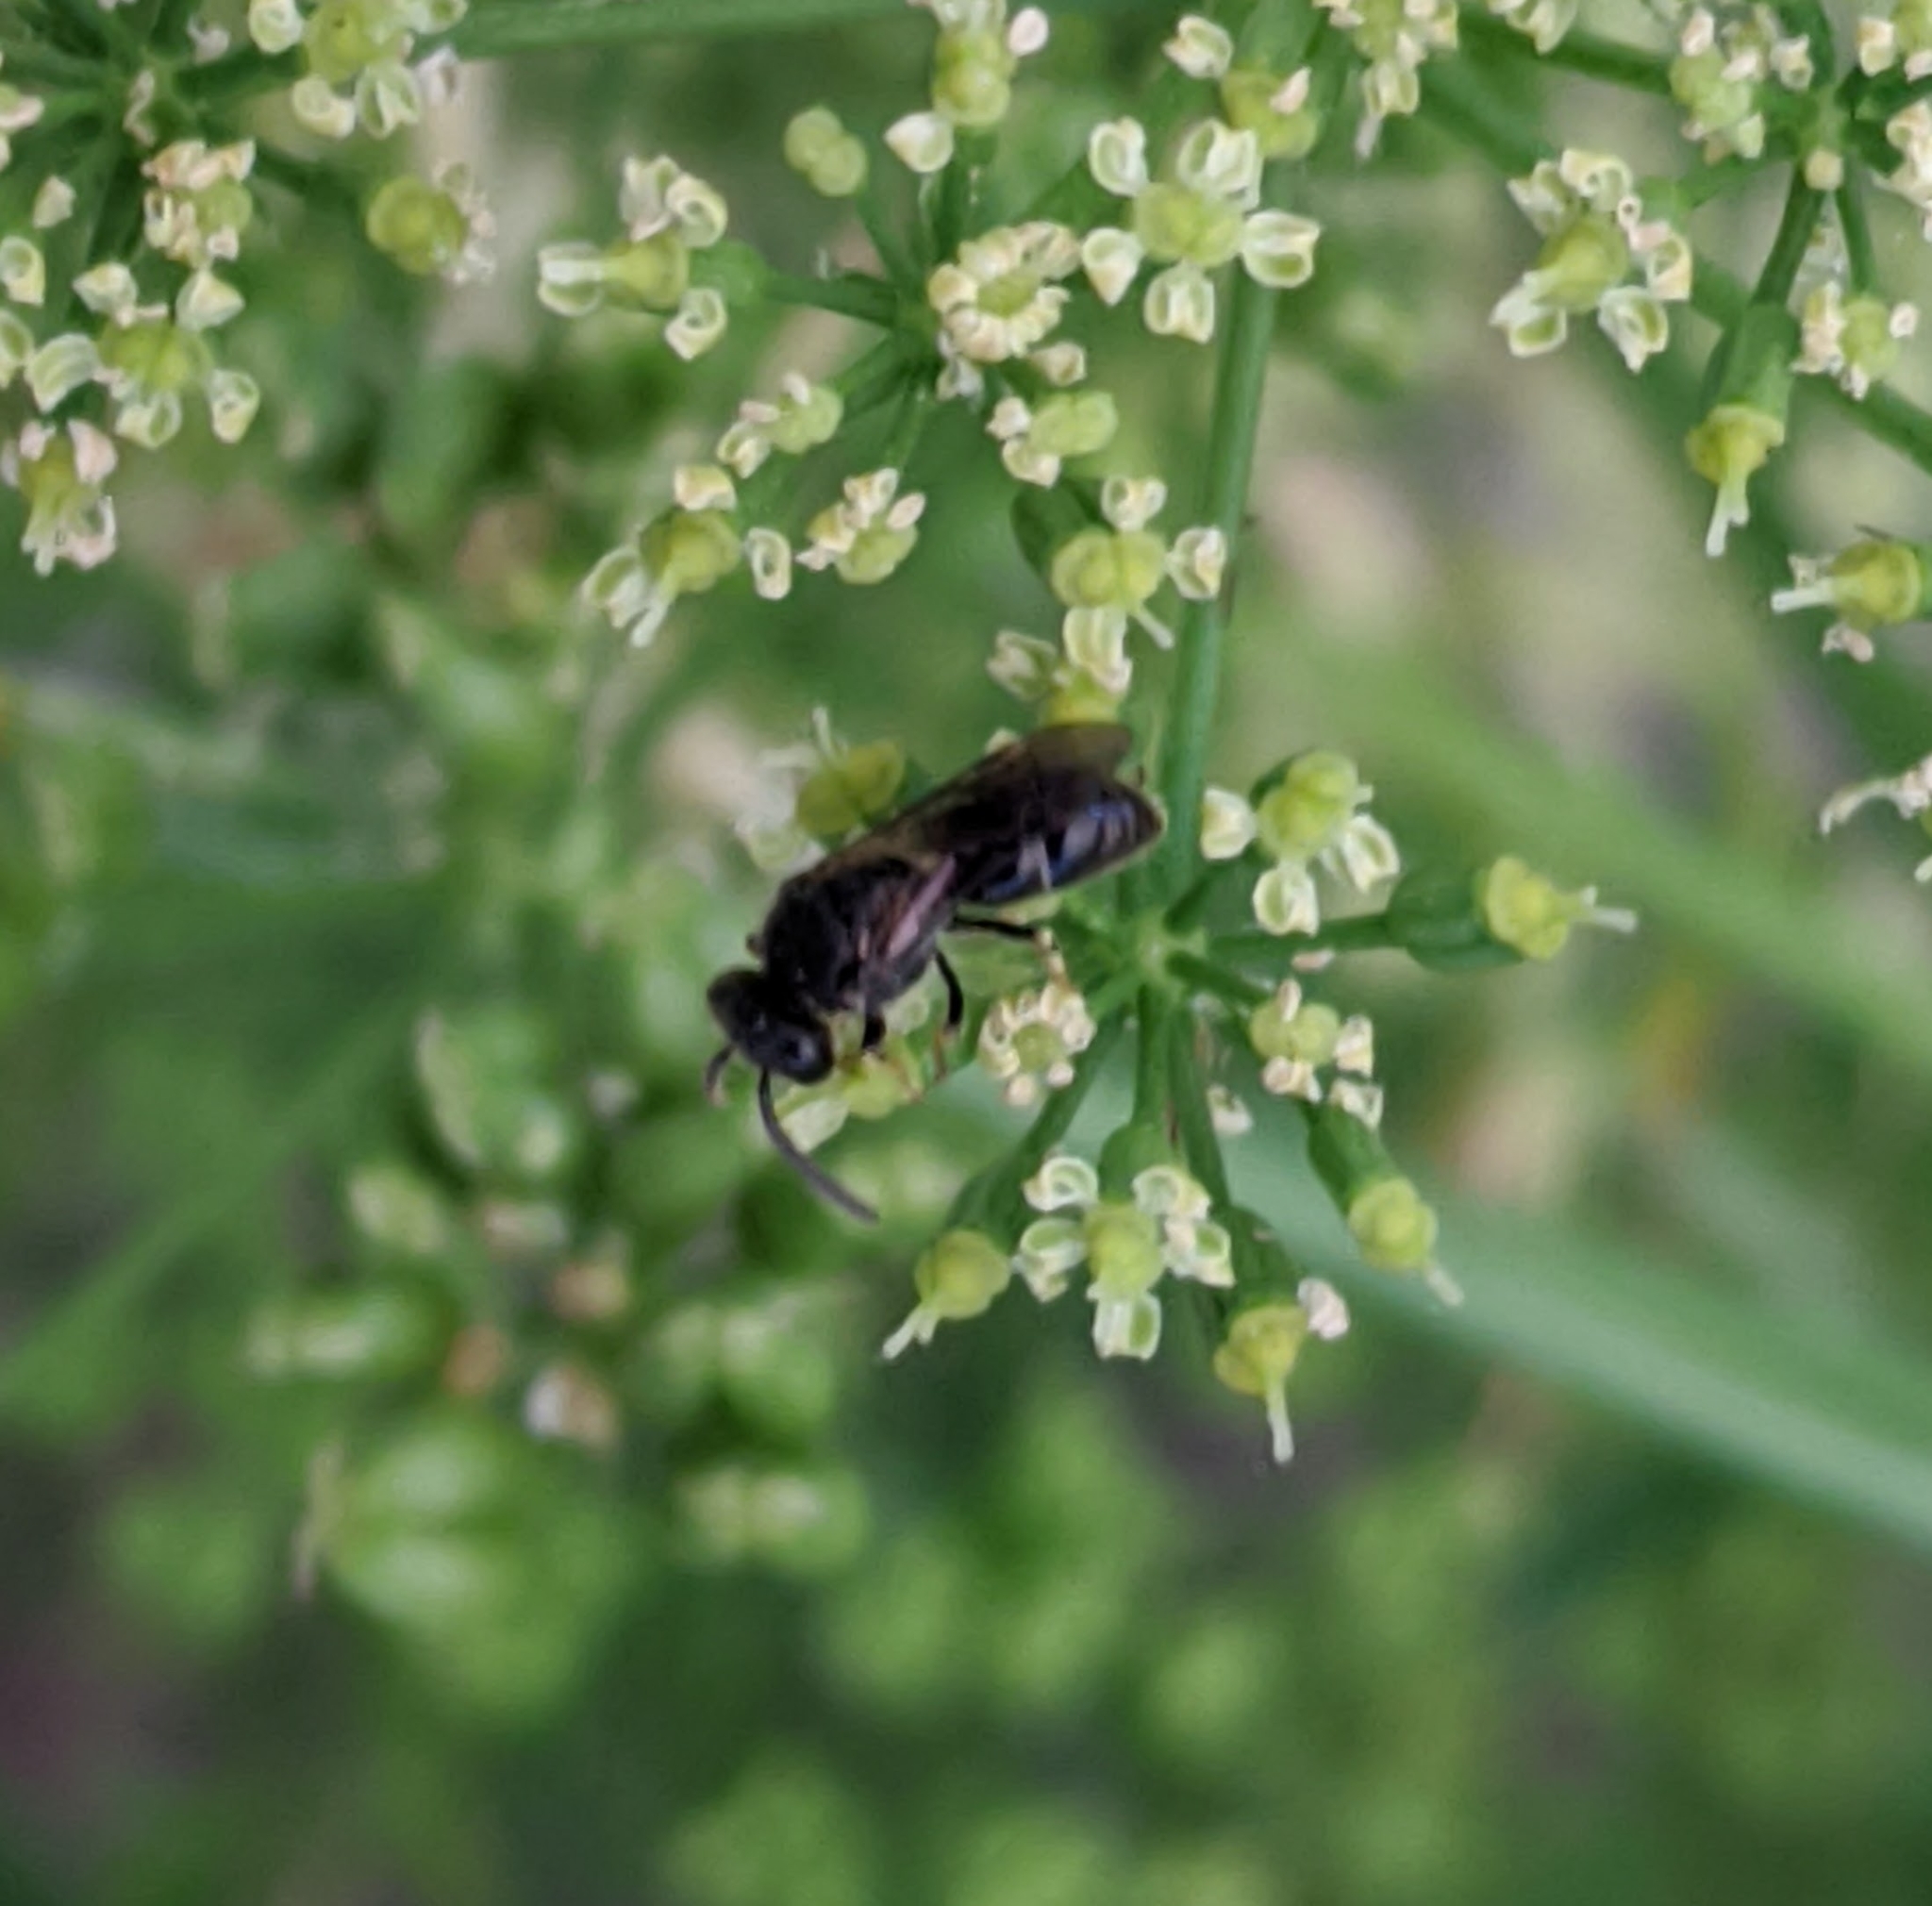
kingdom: Animalia
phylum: Arthropoda
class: Insecta
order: Hymenoptera
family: Colletidae
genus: Hylaeus
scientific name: Hylaeus
